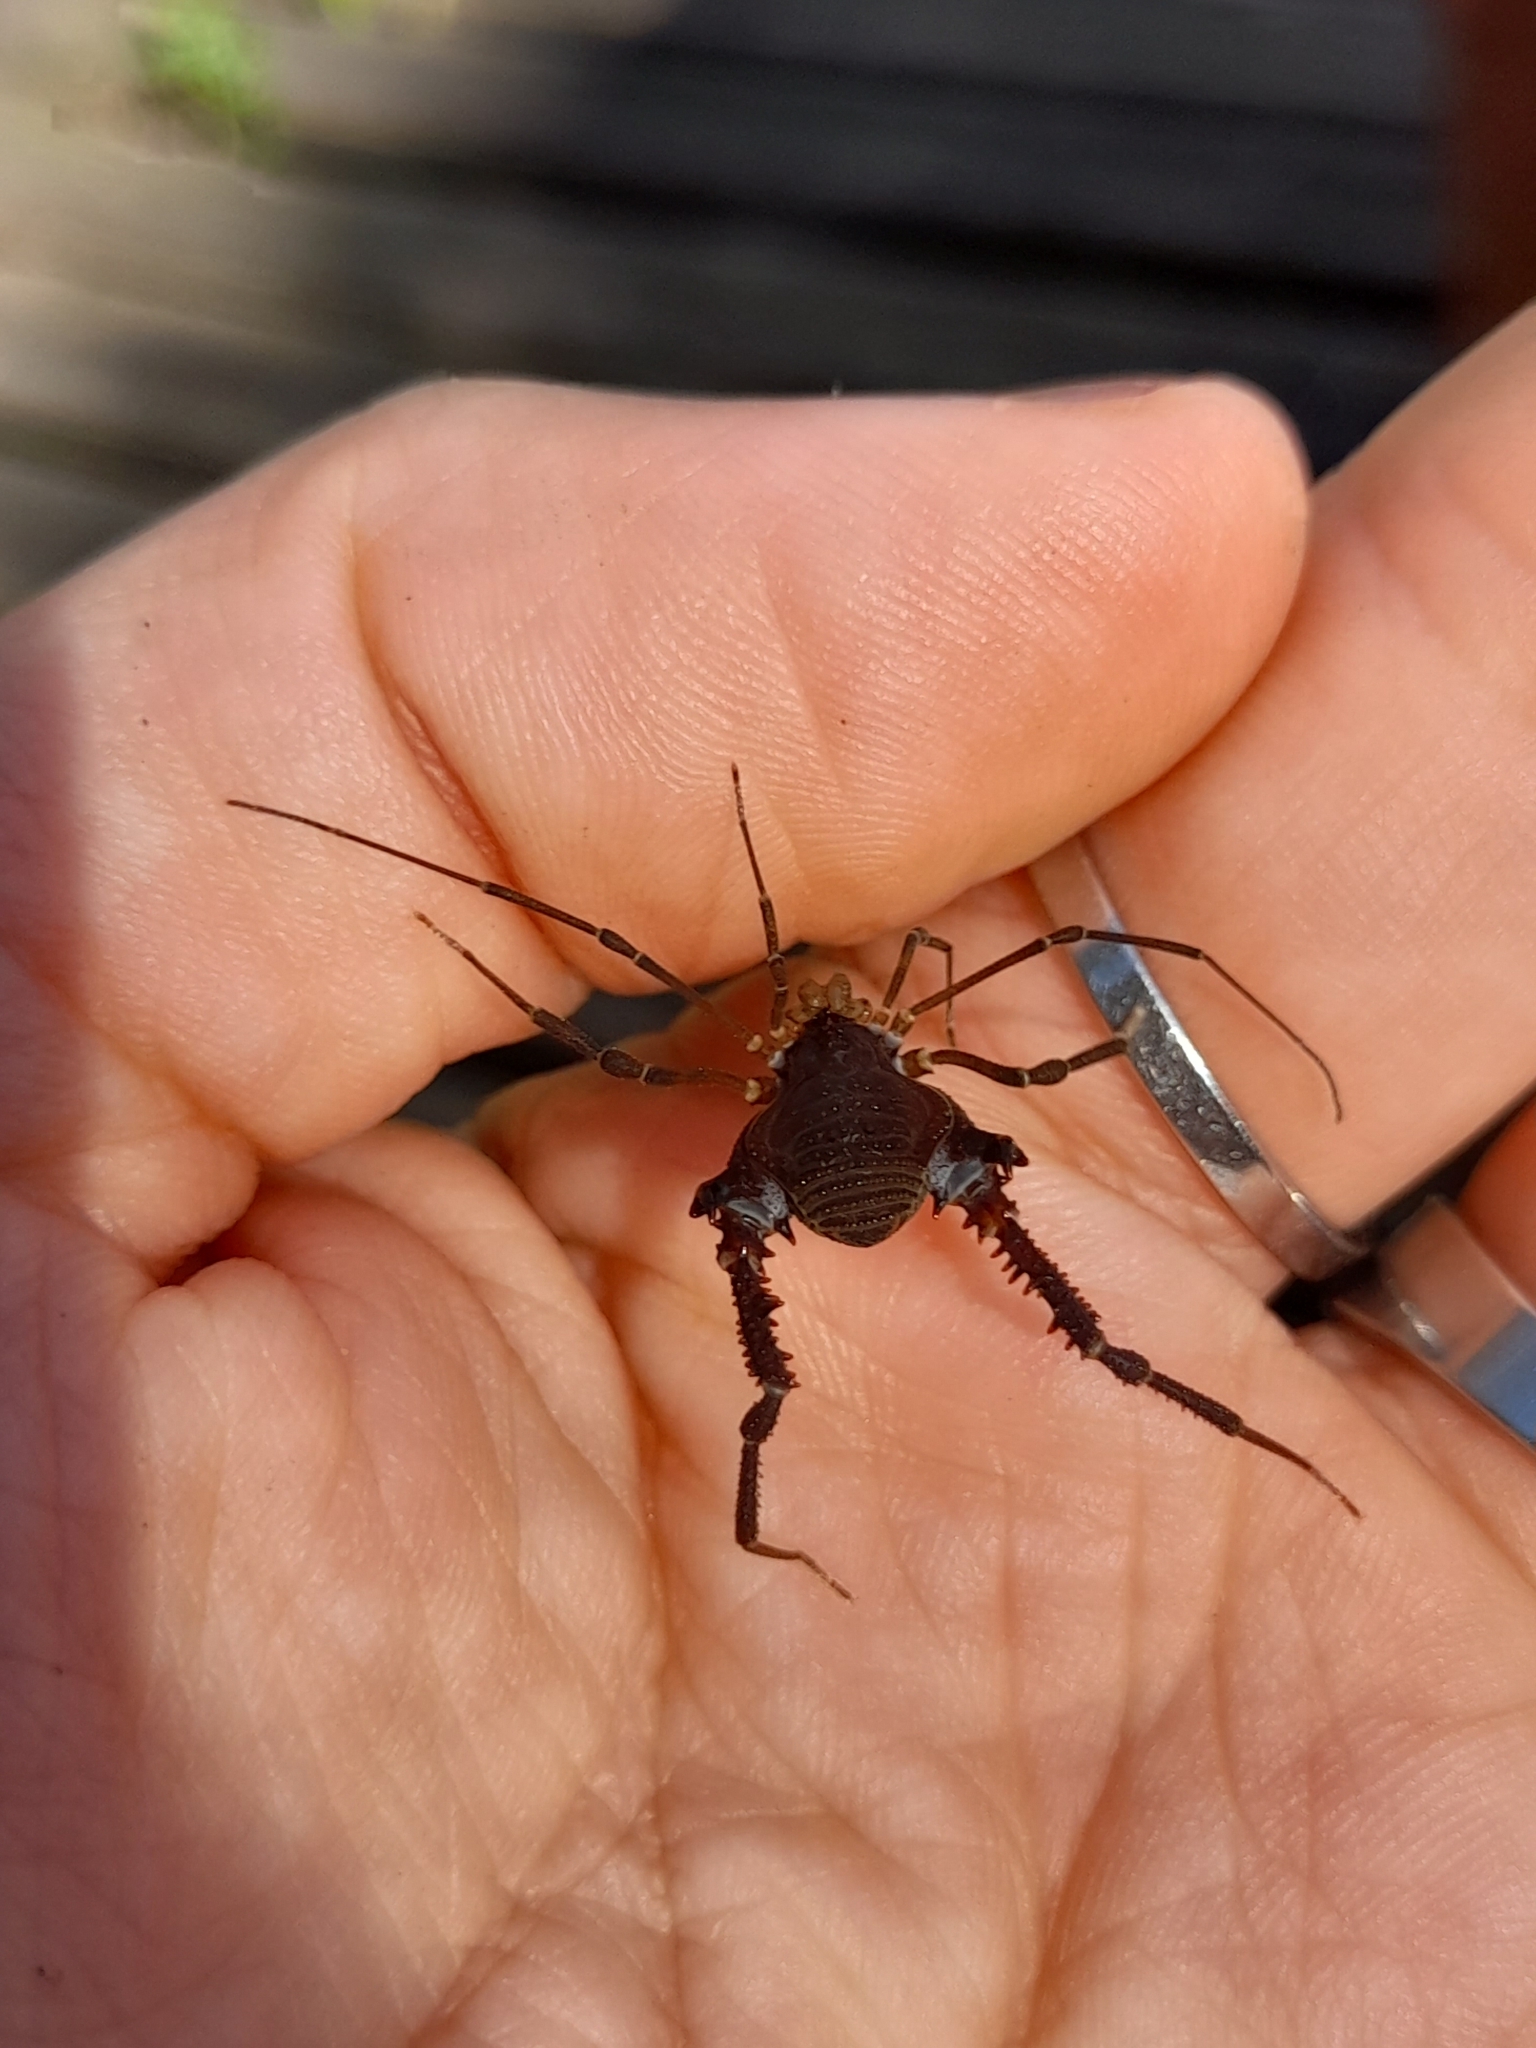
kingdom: Animalia
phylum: Arthropoda
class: Arachnida
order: Opiliones
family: Gonyleptidae
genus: Opisthoplatus
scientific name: Opisthoplatus prospicuus
